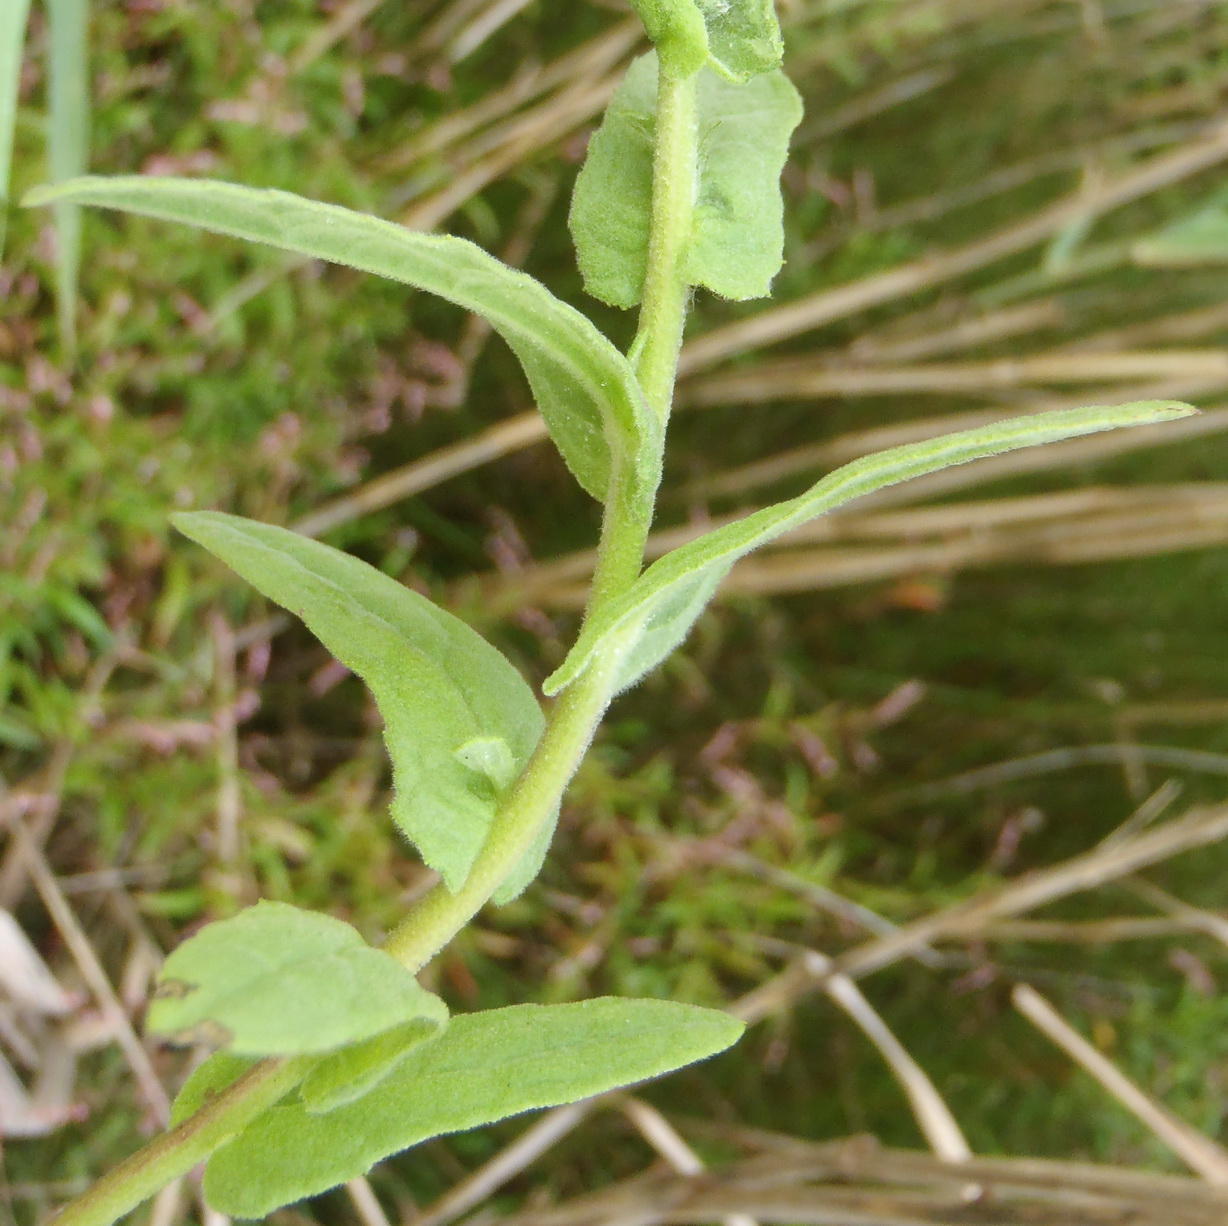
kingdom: Plantae
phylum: Tracheophyta
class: Magnoliopsida
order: Asterales
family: Asteraceae
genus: Pulicaria
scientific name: Pulicaria scabra
